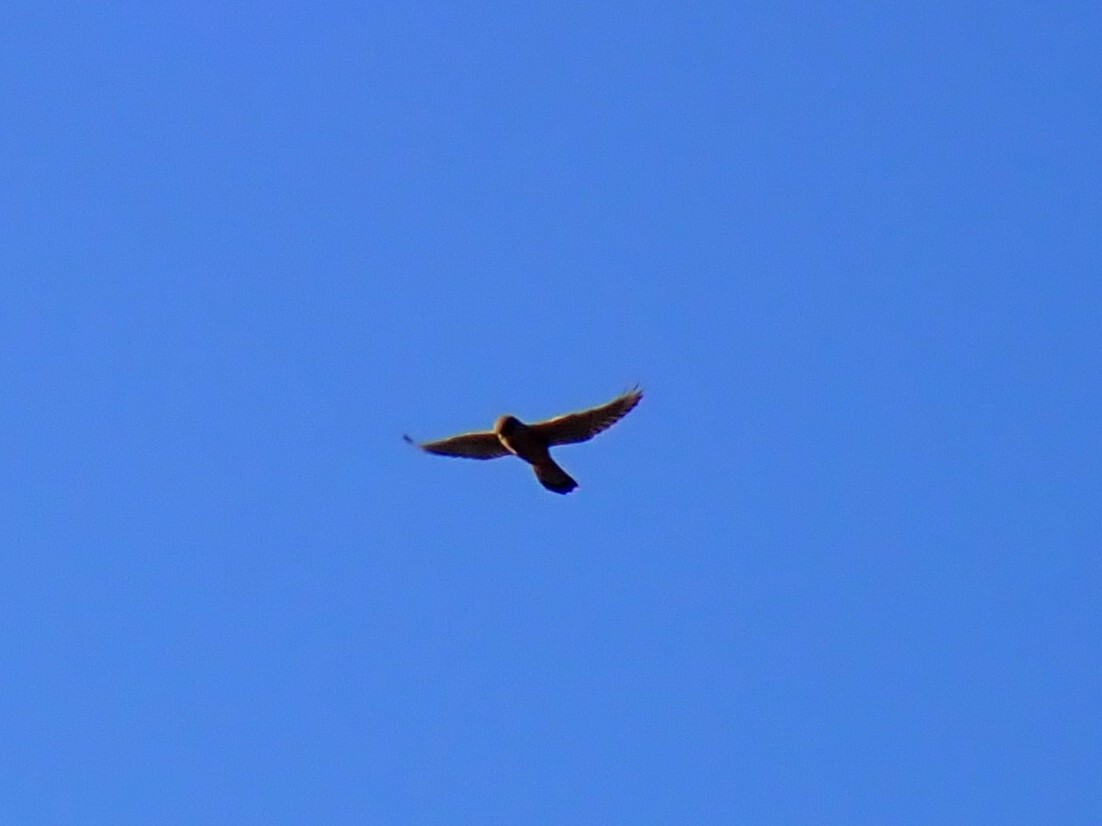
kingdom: Animalia
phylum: Chordata
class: Aves
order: Falconiformes
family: Falconidae
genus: Falco
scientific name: Falco tinnunculus
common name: Common kestrel
